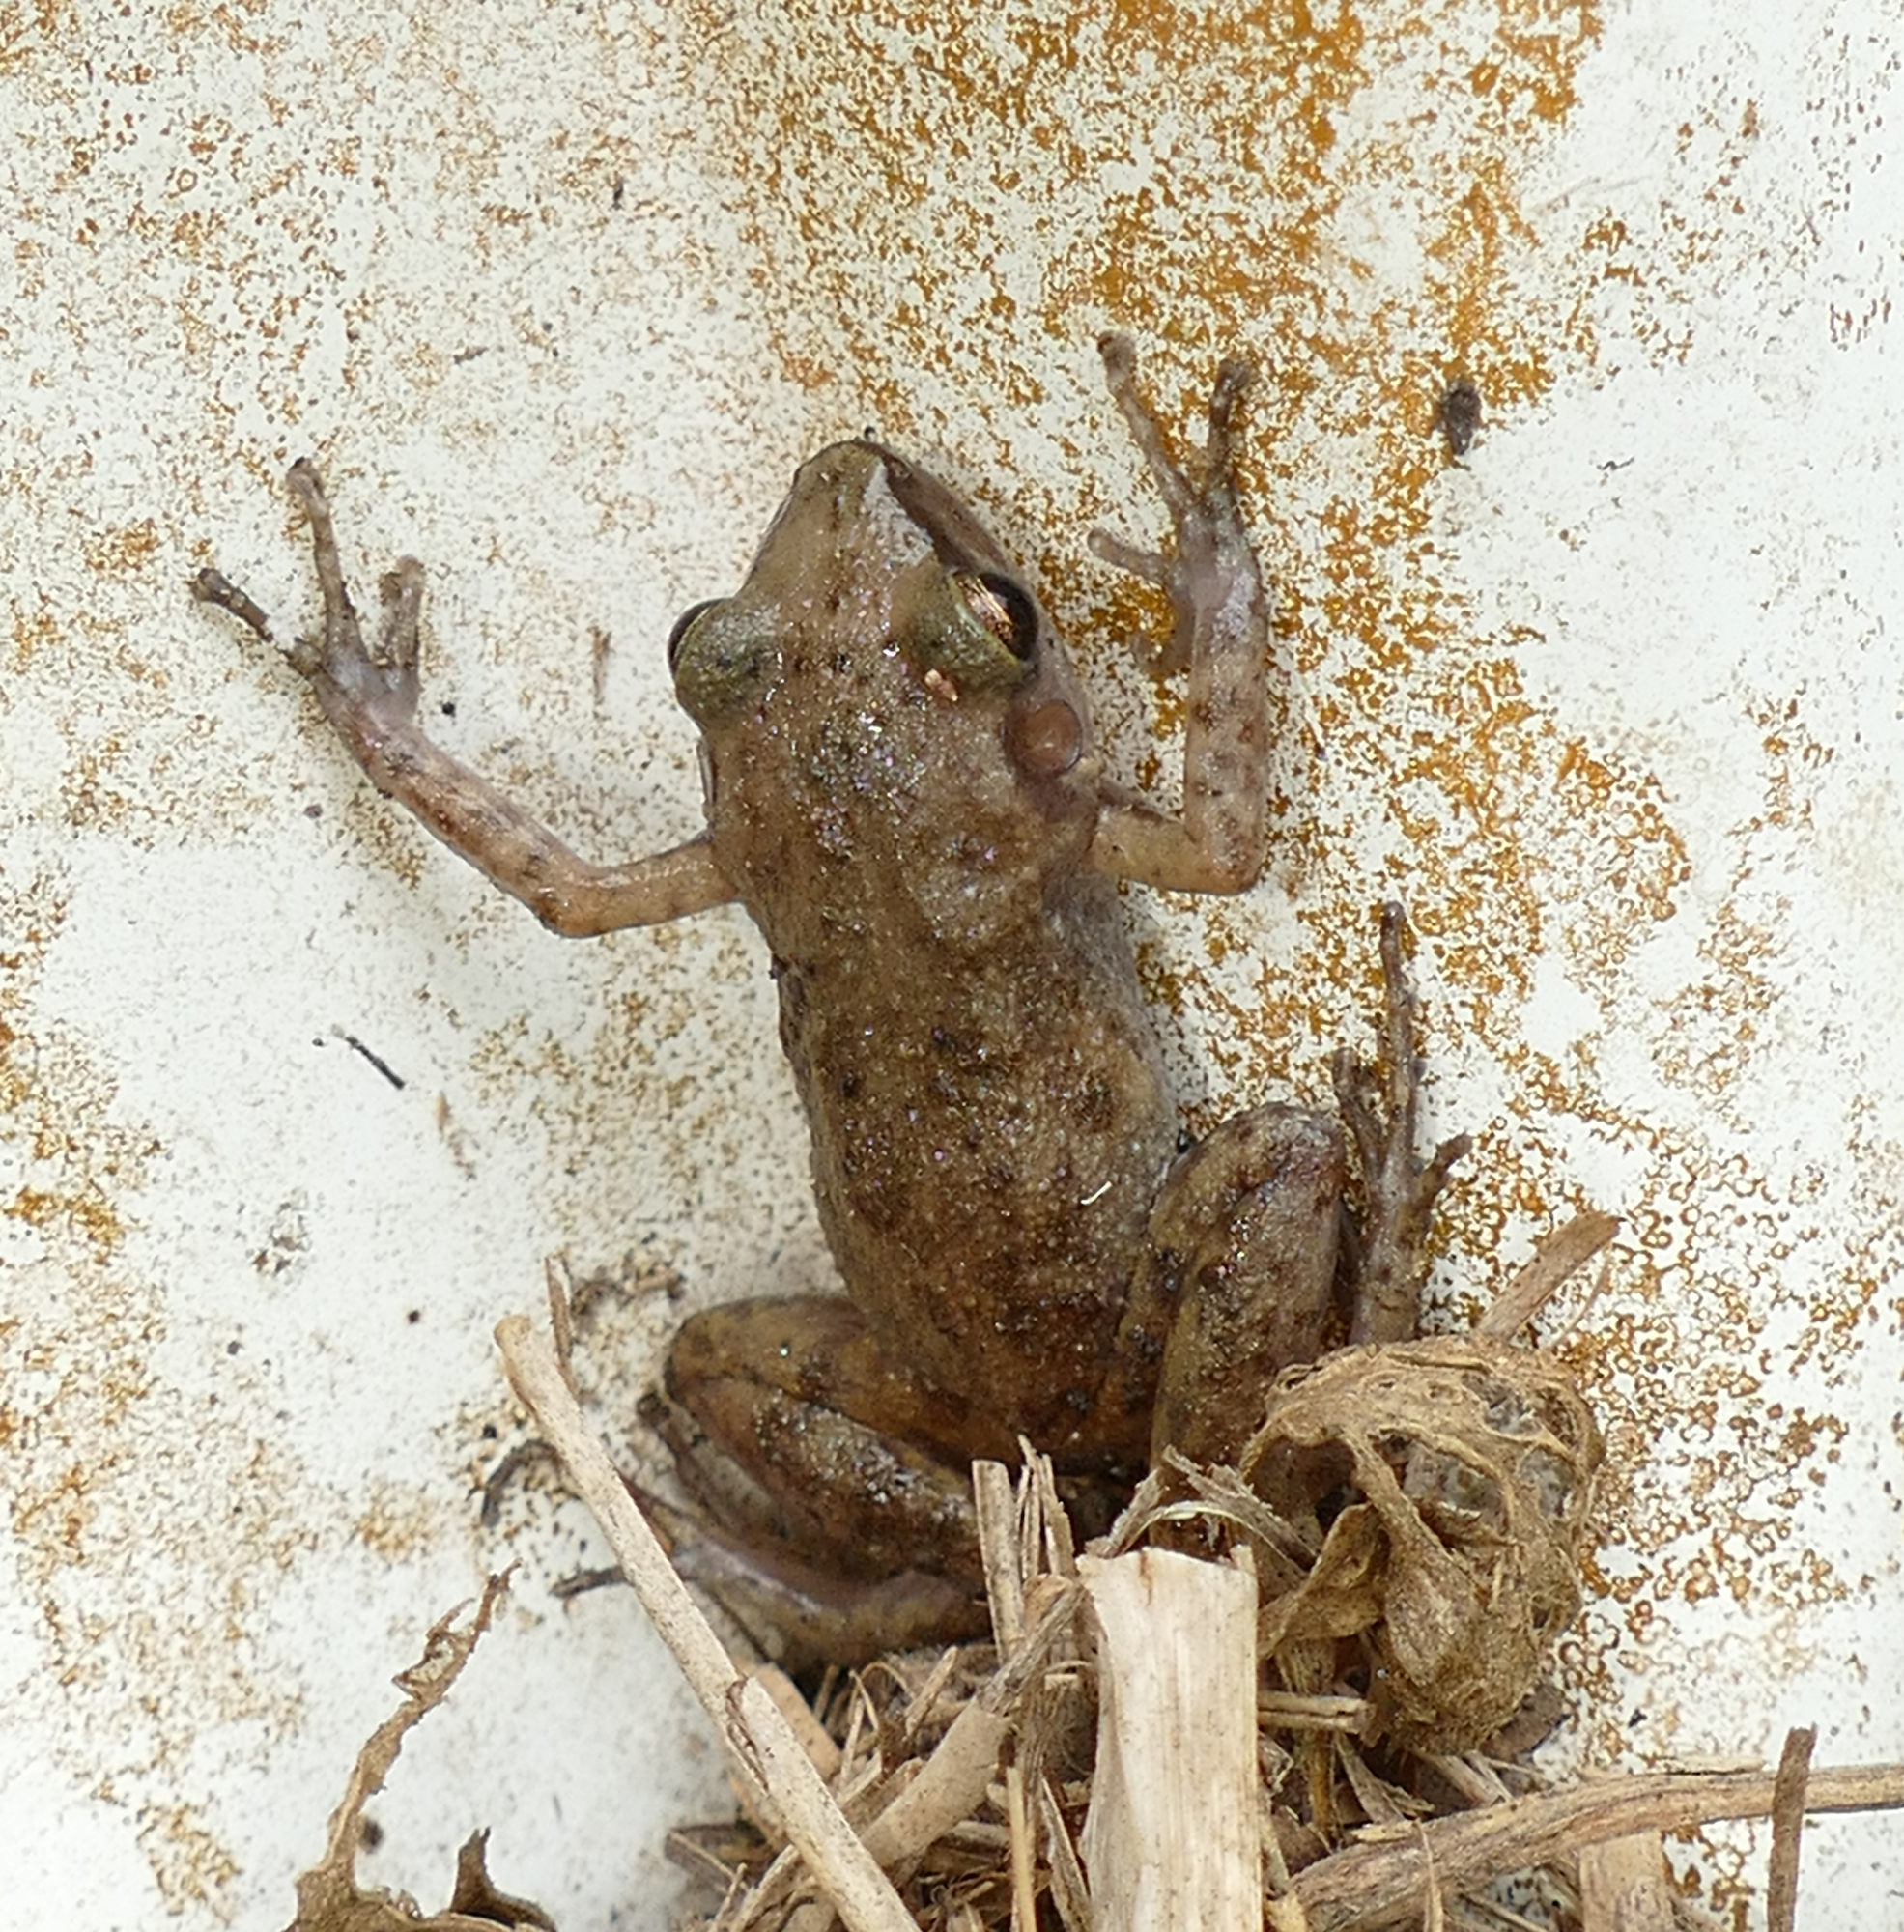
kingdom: Animalia
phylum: Chordata
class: Amphibia
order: Anura
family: Eleutherodactylidae
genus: Eleutherodactylus
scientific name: Eleutherodactylus campi
